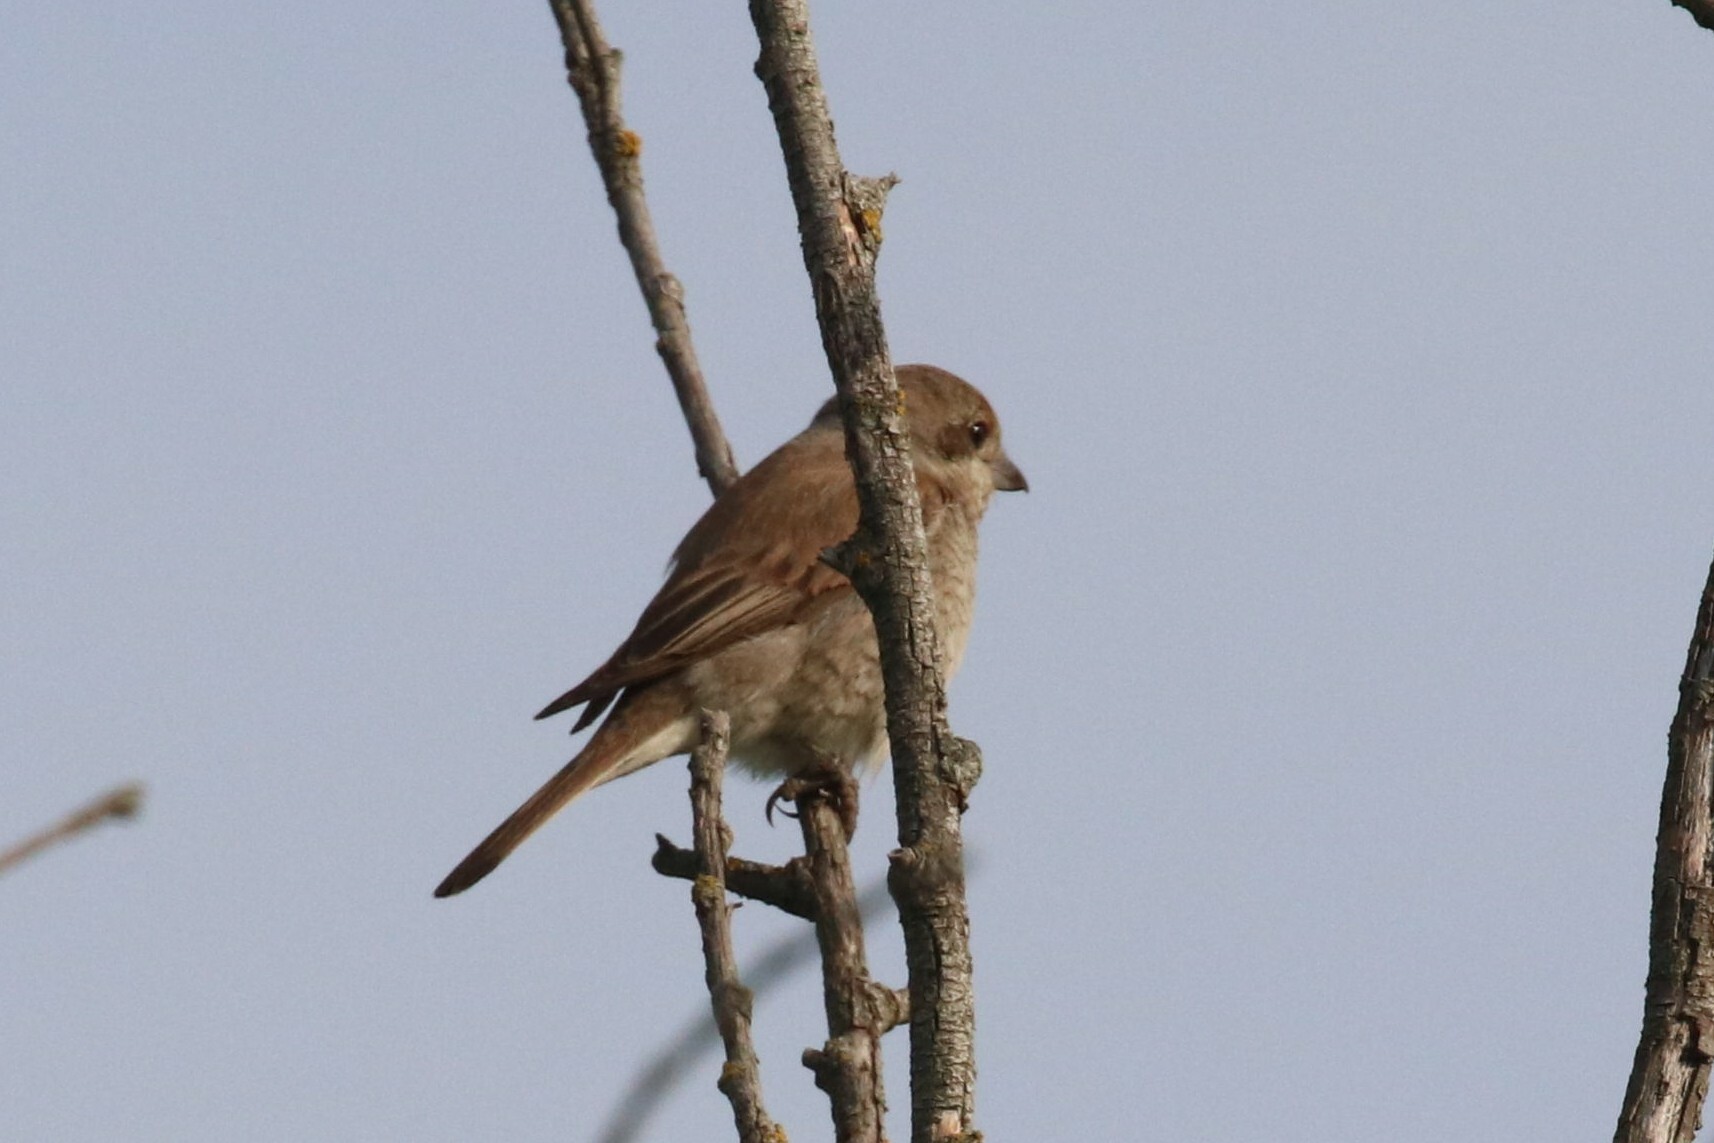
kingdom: Animalia
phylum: Chordata
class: Aves
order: Passeriformes
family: Laniidae
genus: Lanius
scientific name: Lanius collurio
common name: Red-backed shrike
